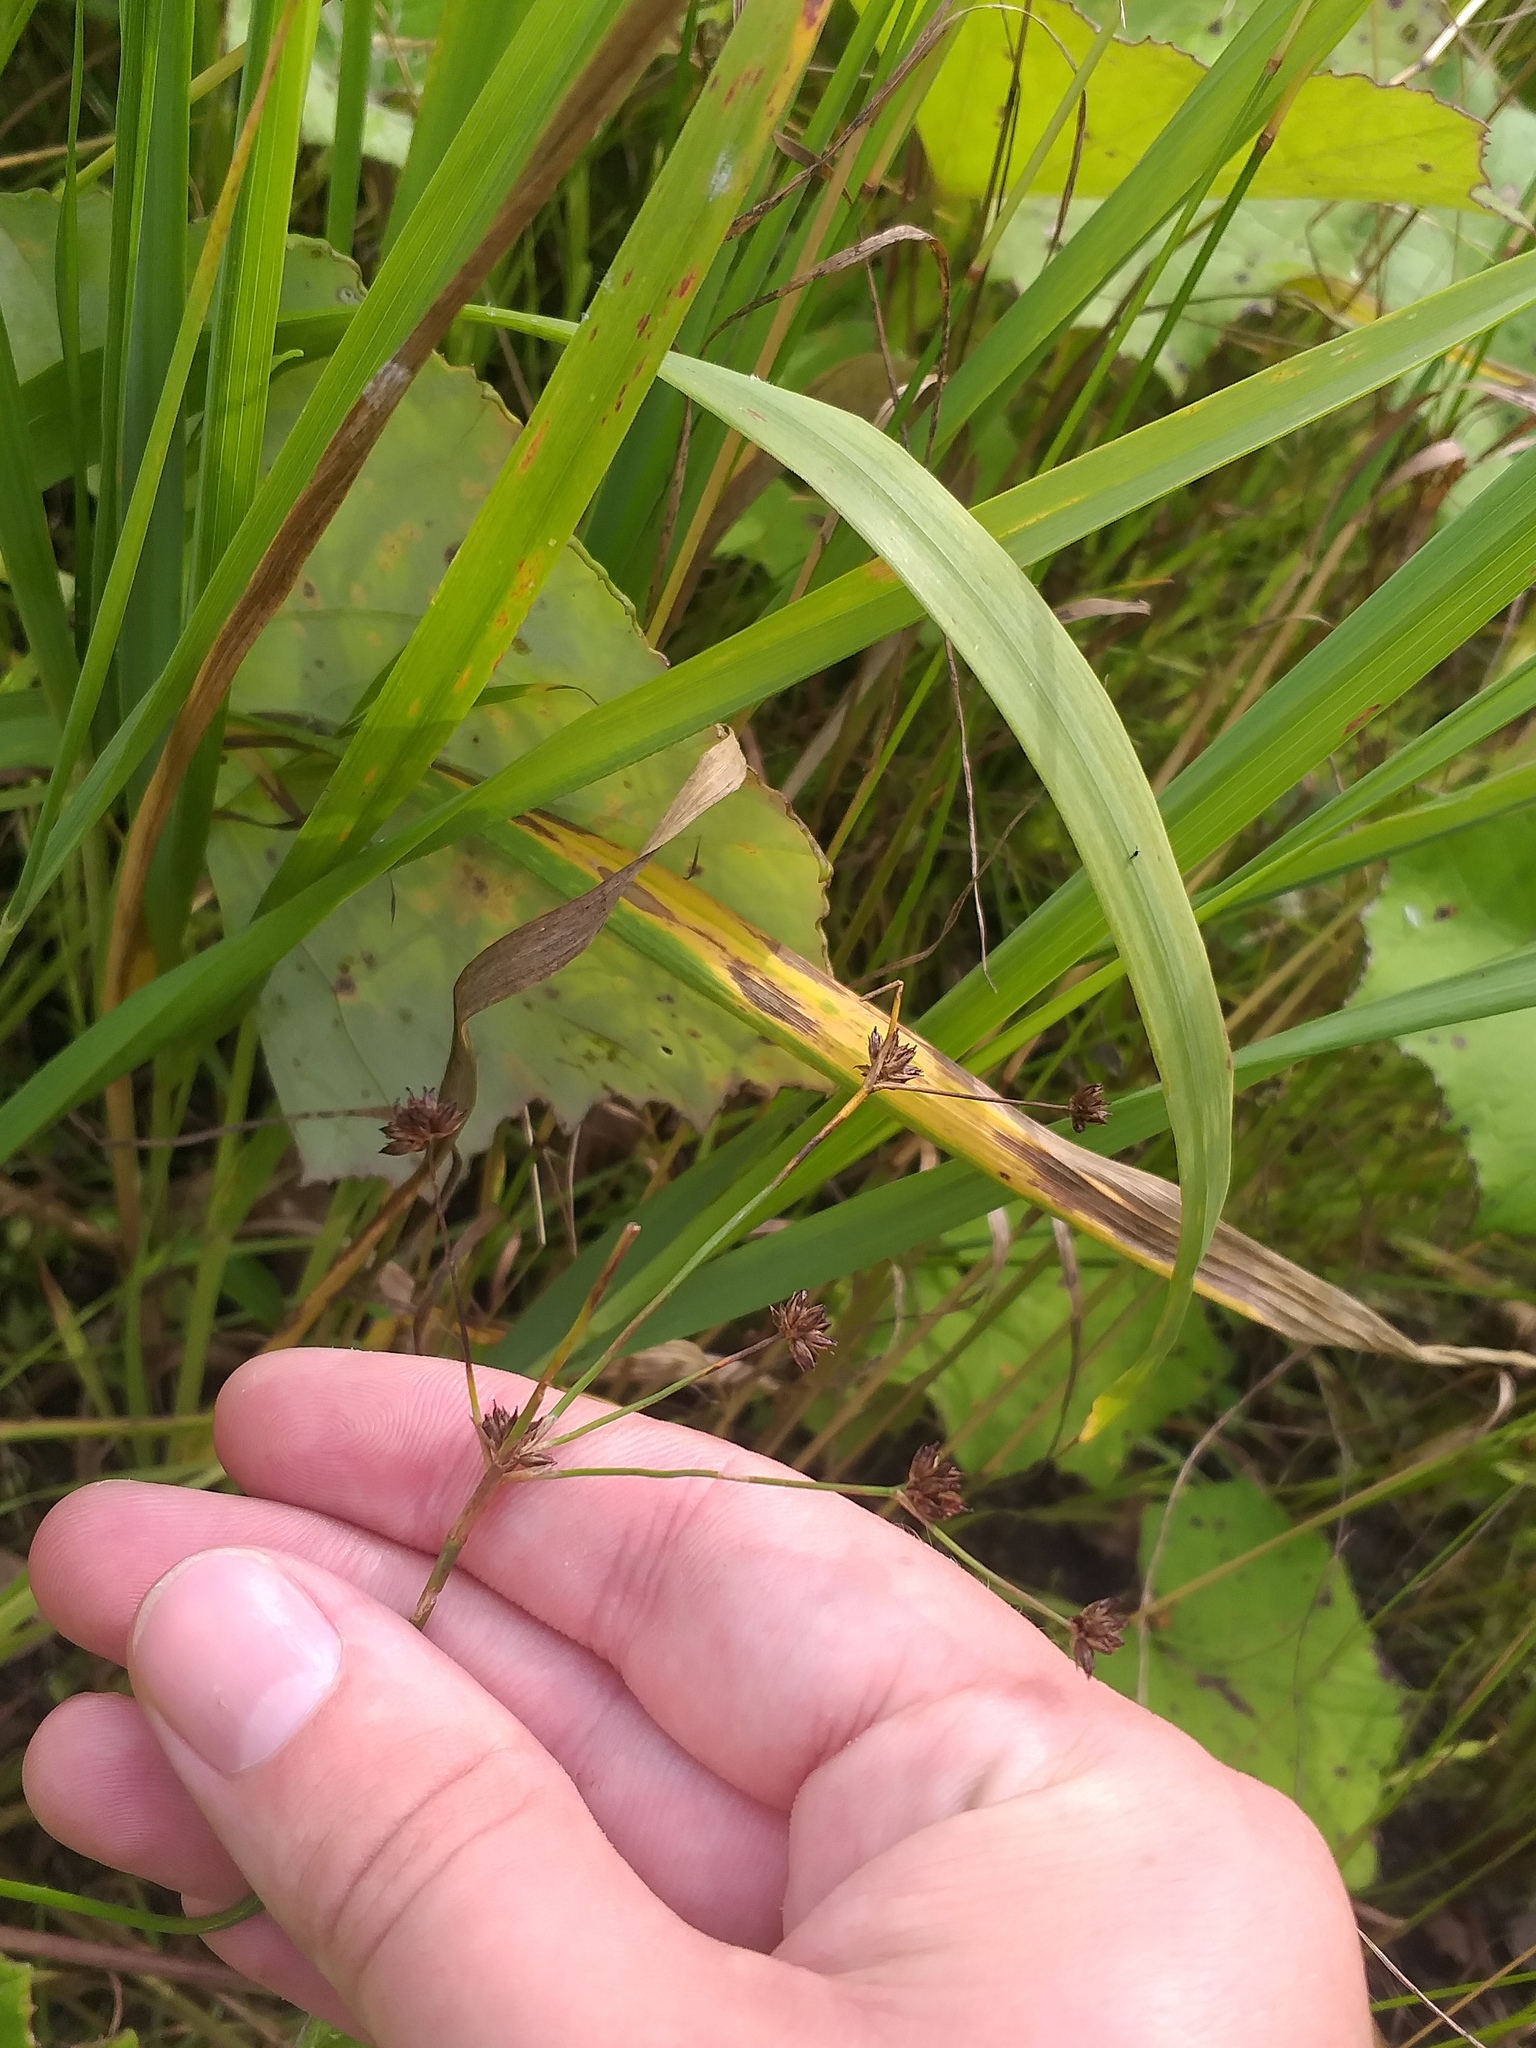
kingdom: Plantae
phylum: Tracheophyta
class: Liliopsida
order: Poales
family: Juncaceae
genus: Juncus
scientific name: Juncus articulatus
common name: Jointed rush
